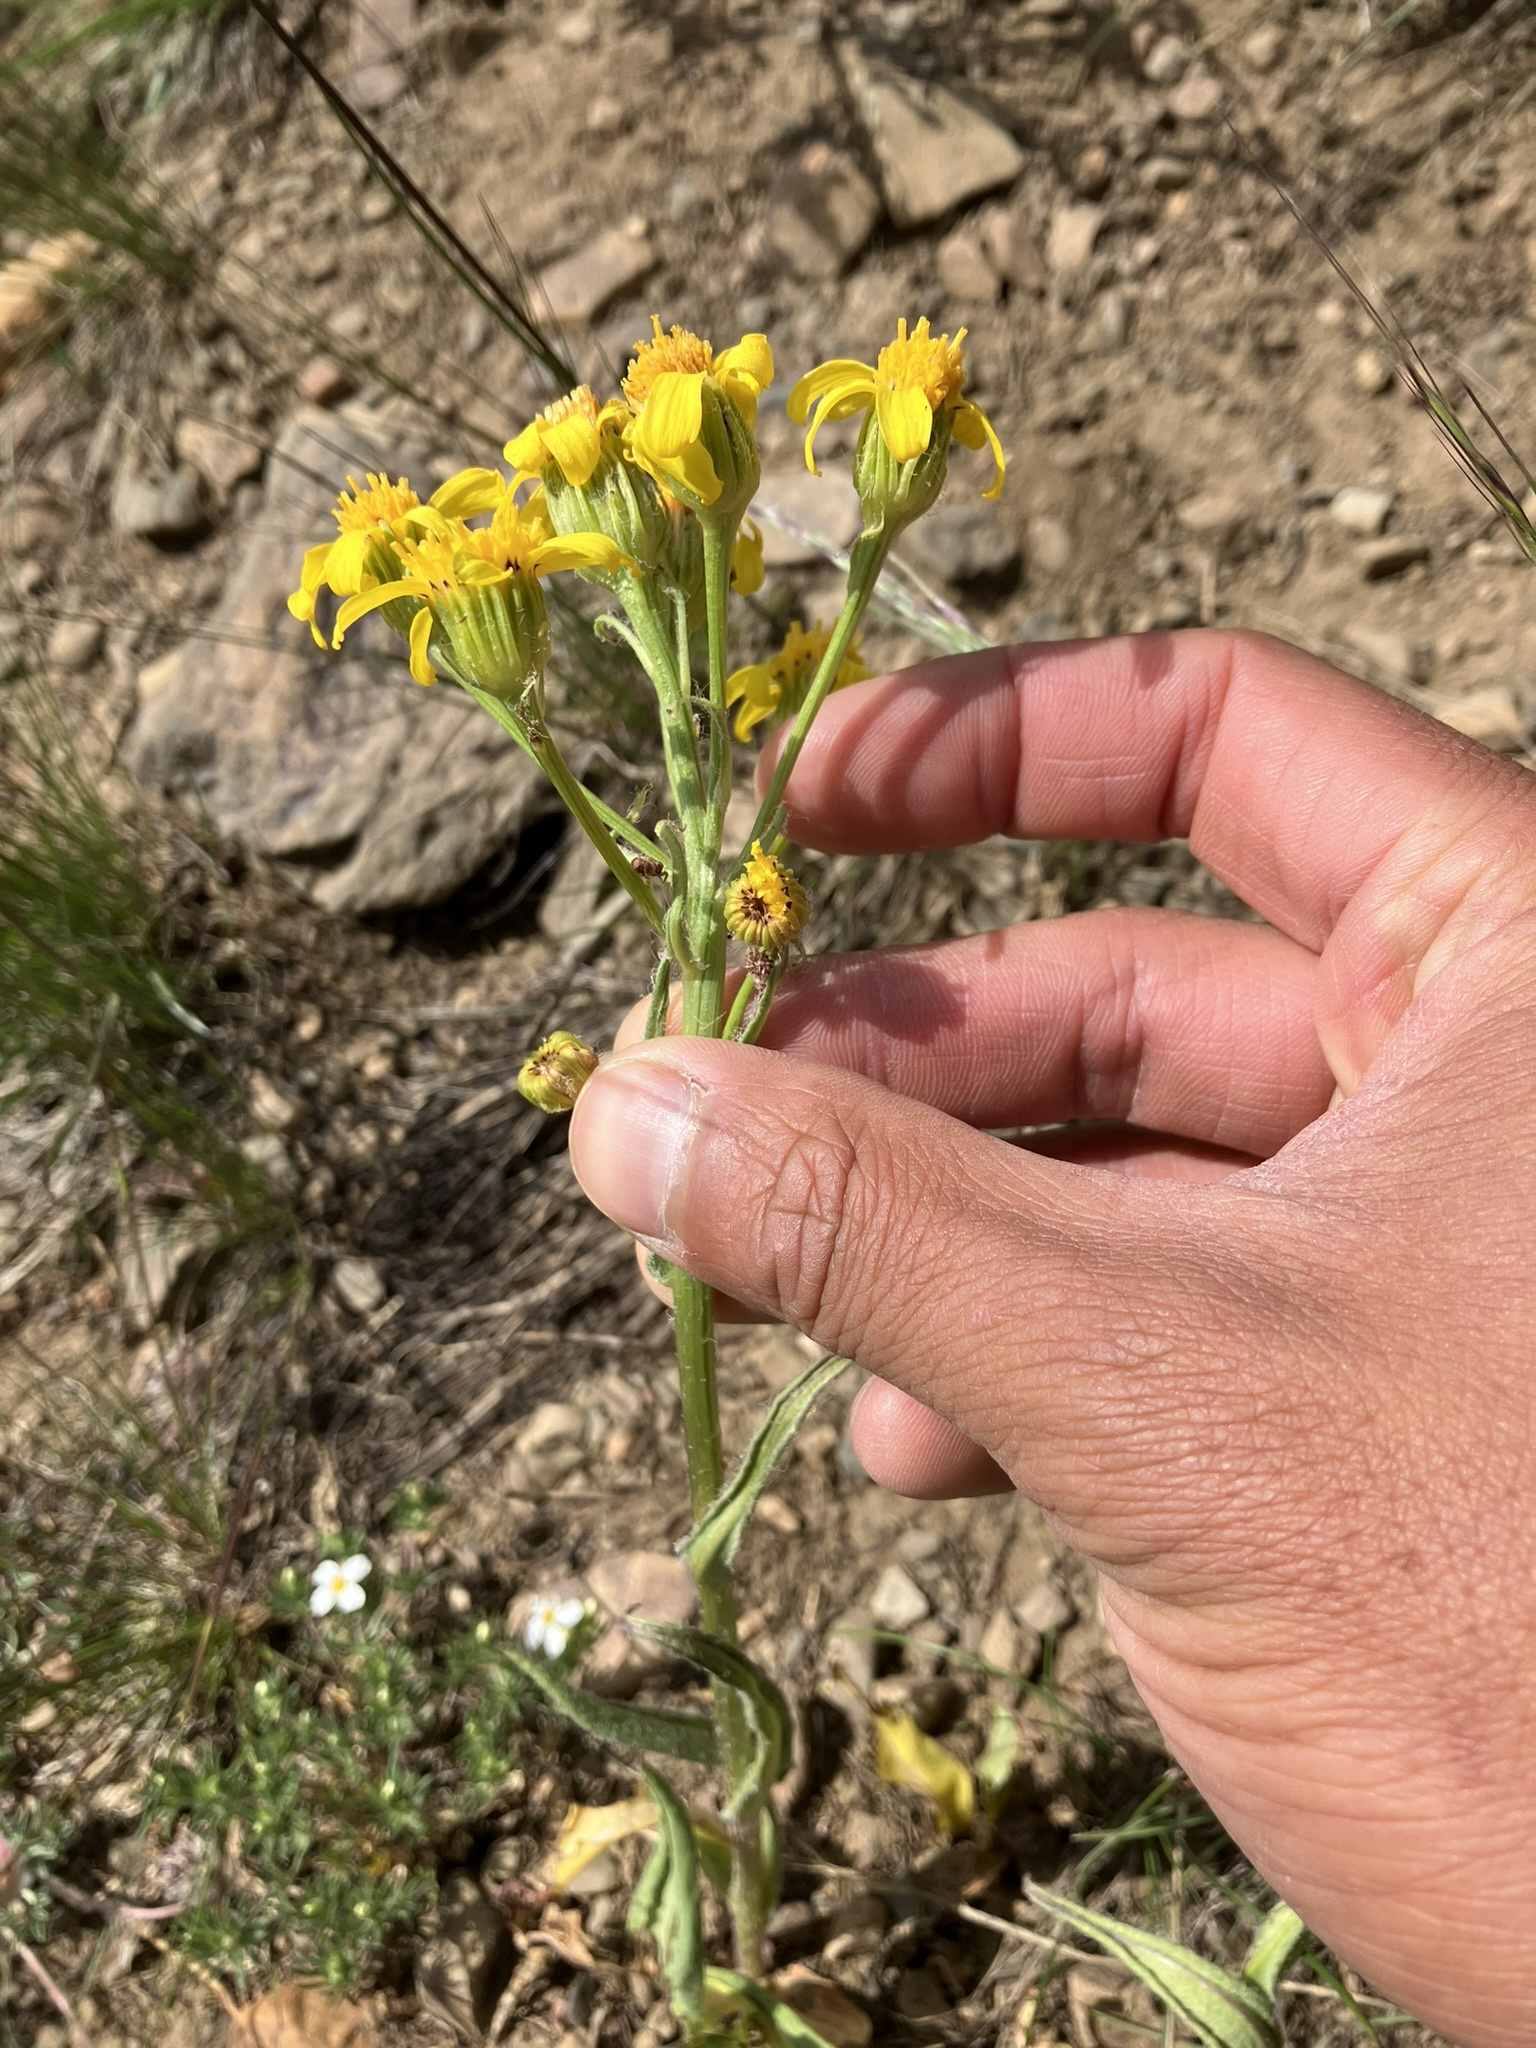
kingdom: Plantae
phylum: Tracheophyta
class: Magnoliopsida
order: Asterales
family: Asteraceae
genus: Senecio
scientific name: Senecio integerrimus
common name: Gaugeplant
